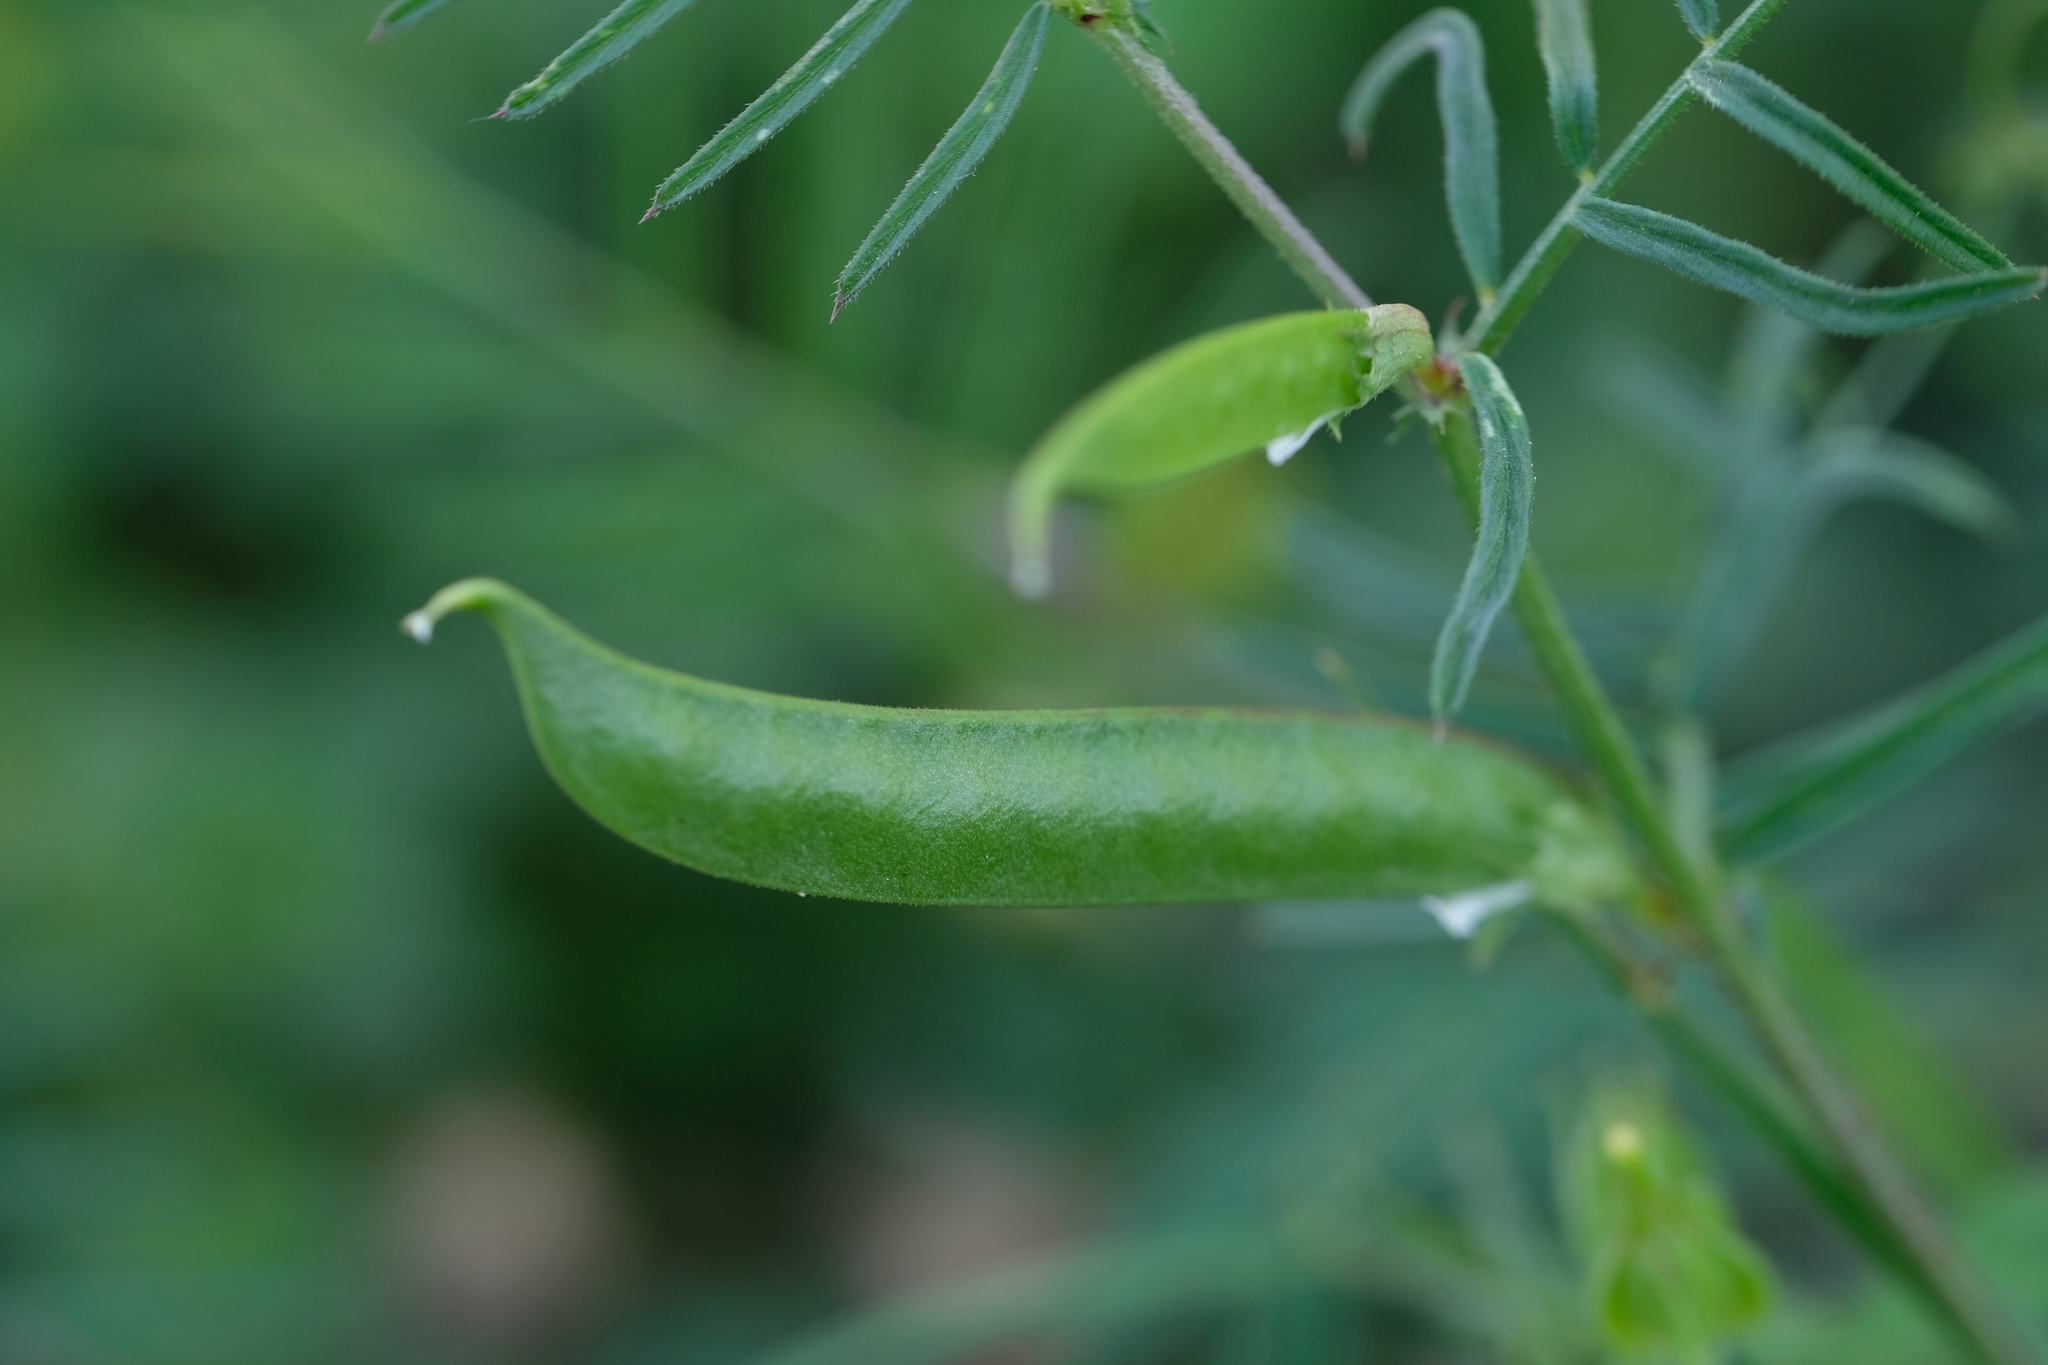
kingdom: Plantae
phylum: Tracheophyta
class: Magnoliopsida
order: Fabales
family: Fabaceae
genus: Vicia
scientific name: Vicia sativa
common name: Garden vetch
